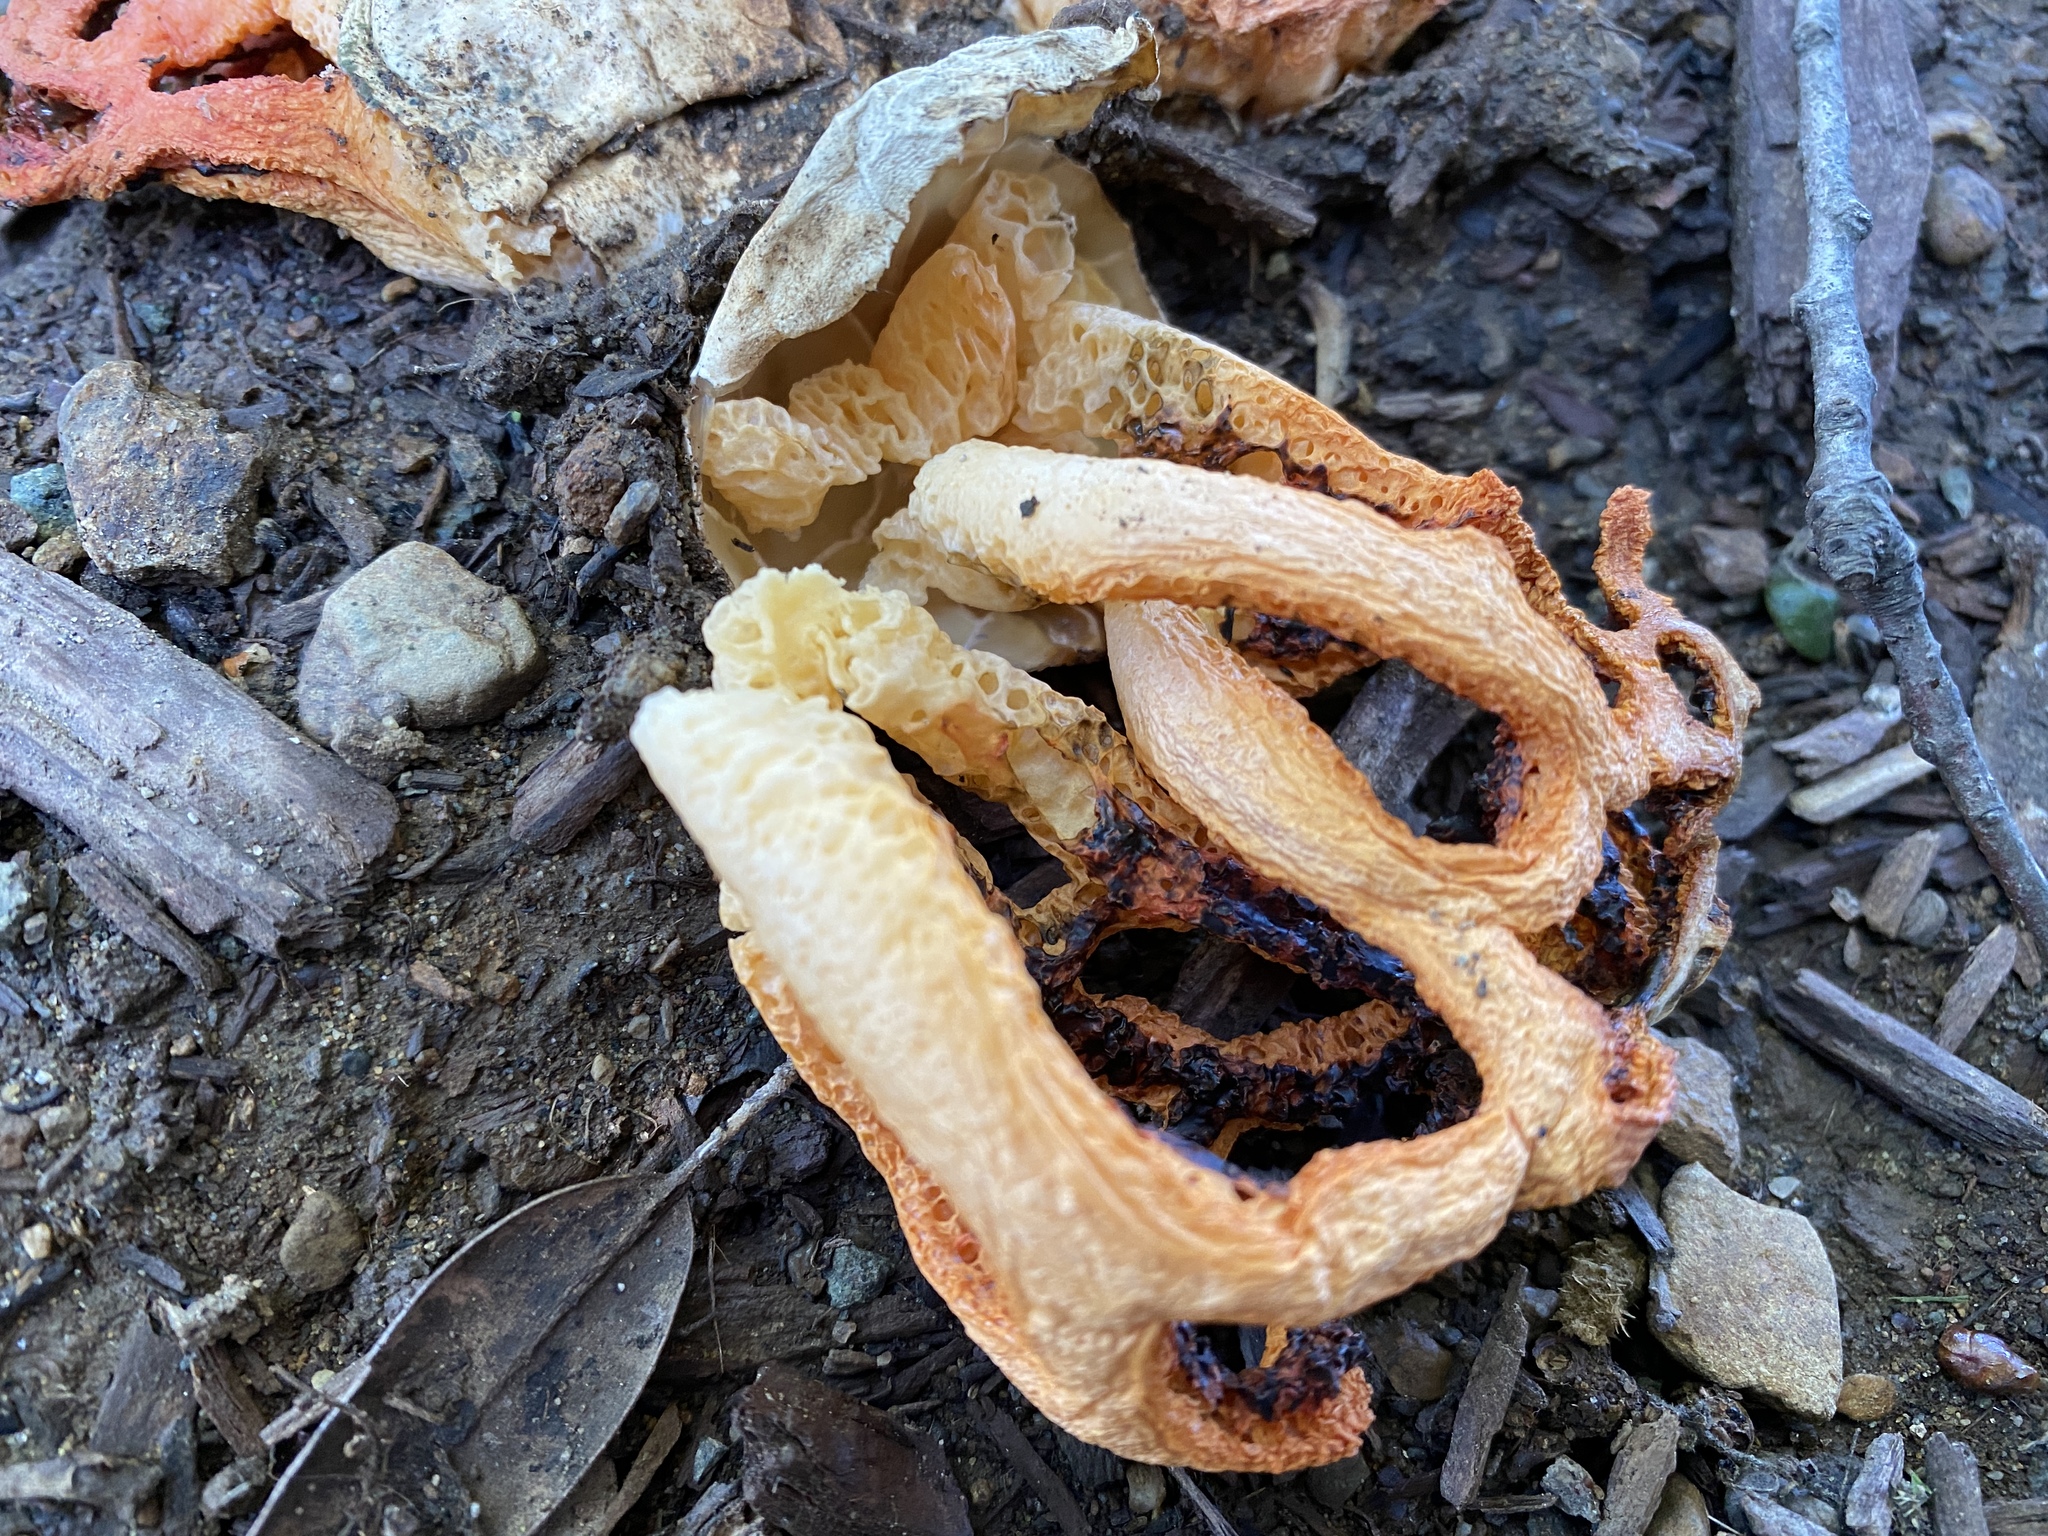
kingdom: Fungi
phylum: Basidiomycota
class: Agaricomycetes
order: Phallales
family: Phallaceae
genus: Clathrus
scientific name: Clathrus ruber
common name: Red cage
